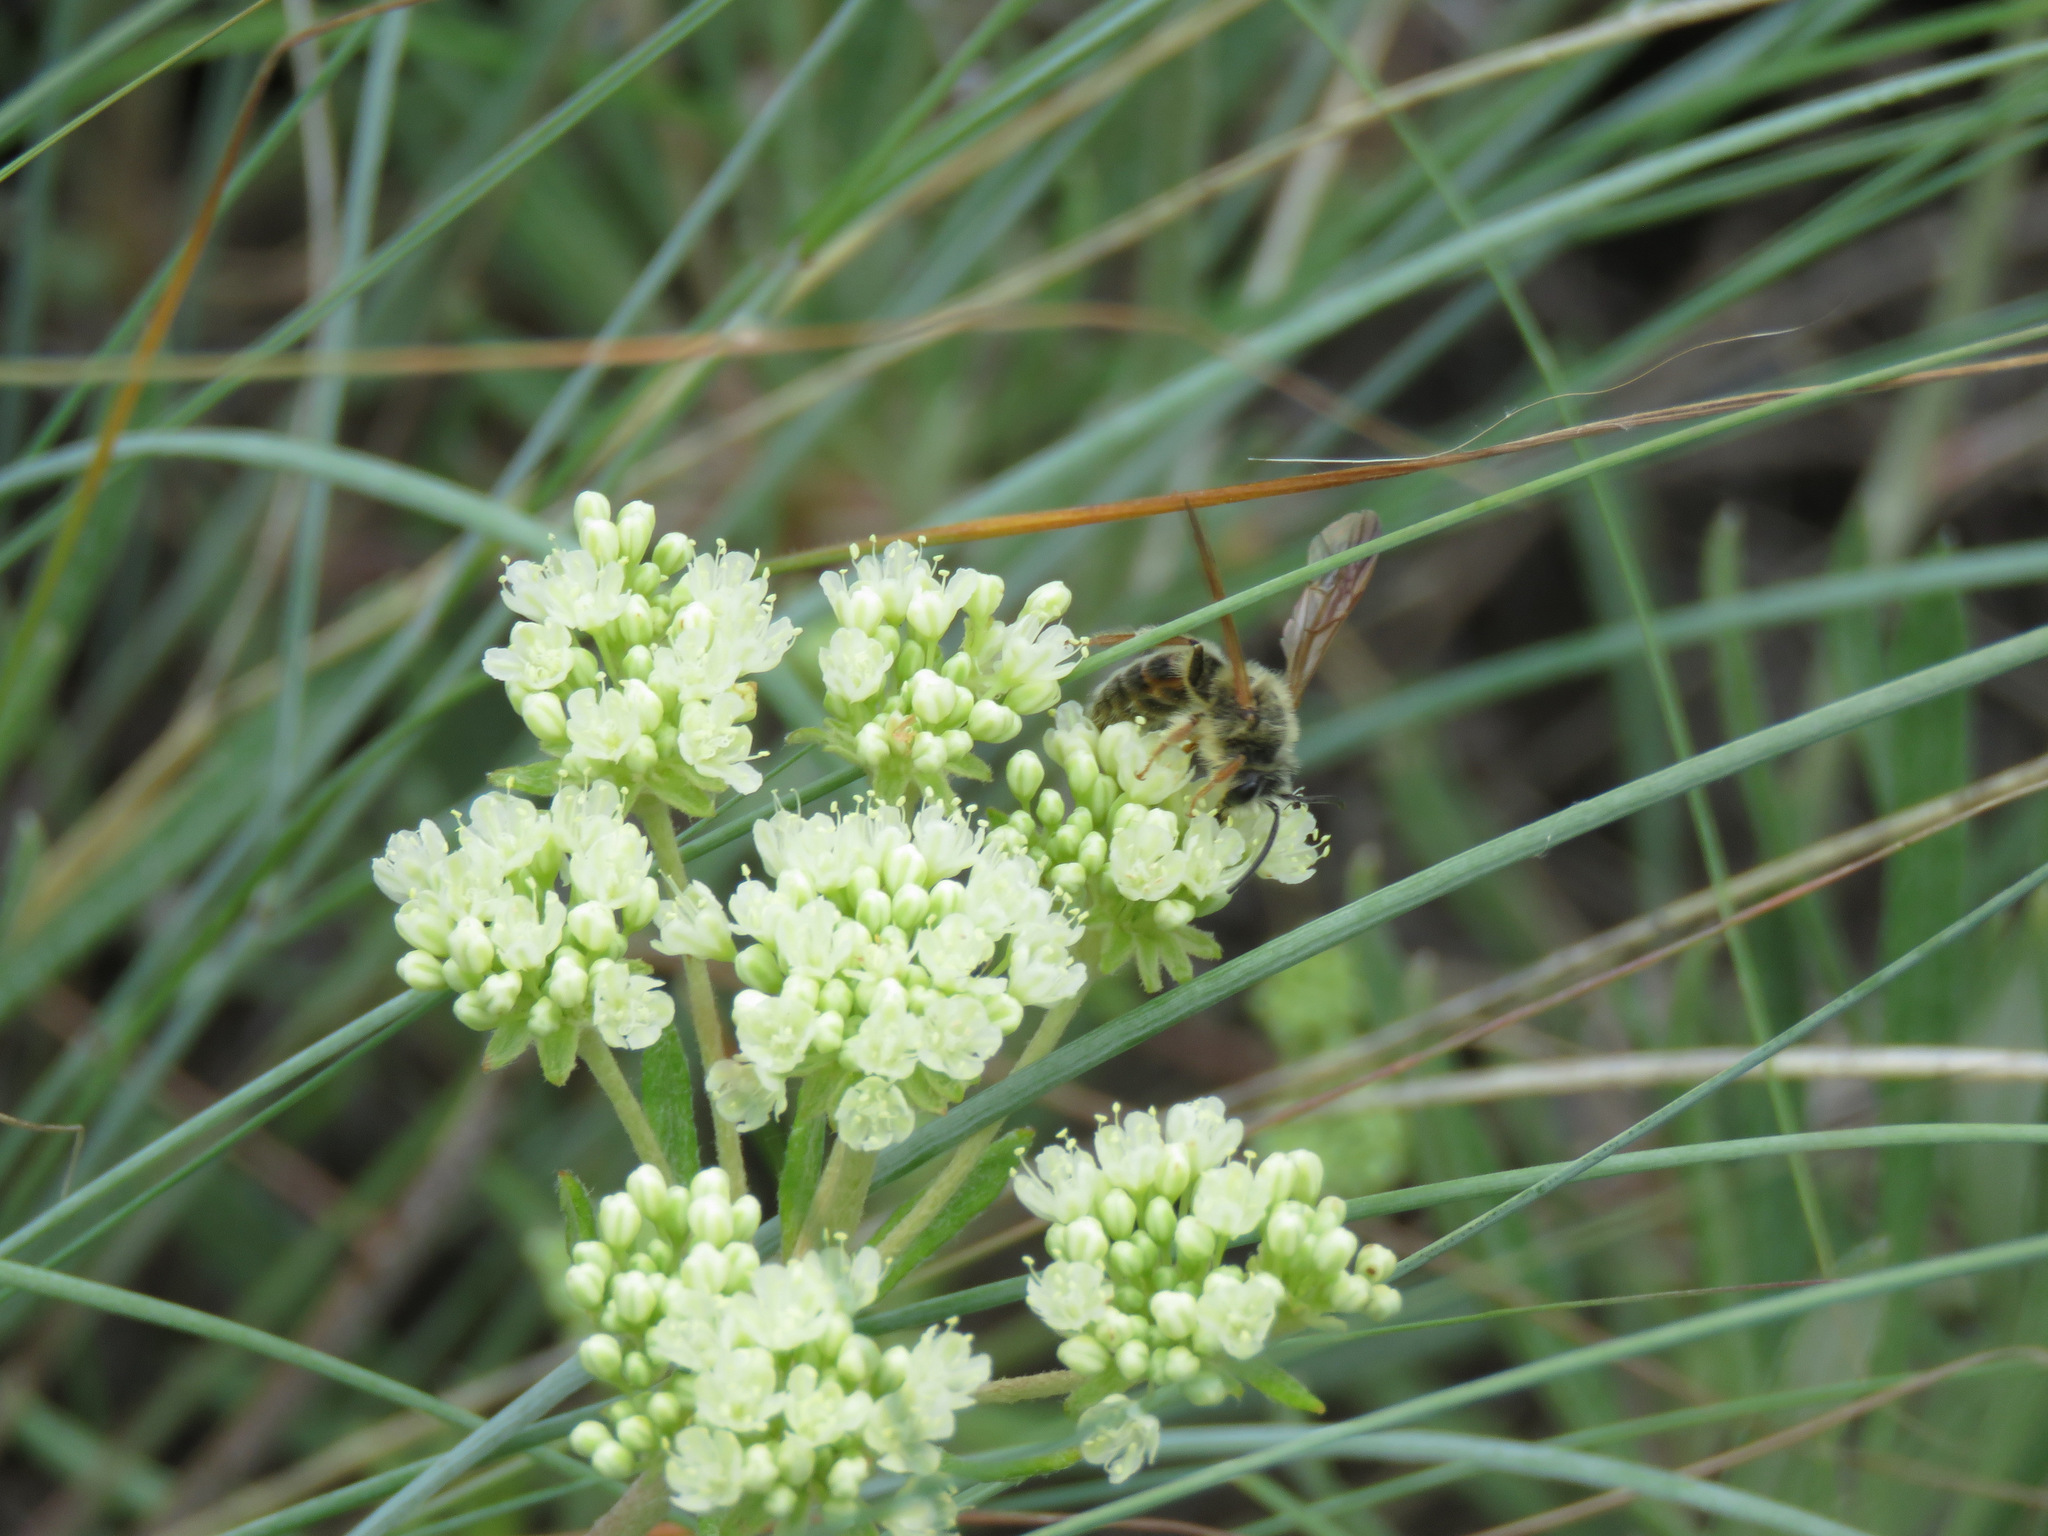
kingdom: Animalia
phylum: Arthropoda
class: Insecta
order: Hymenoptera
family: Apidae
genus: Apis
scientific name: Apis mellifera
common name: Honey bee
